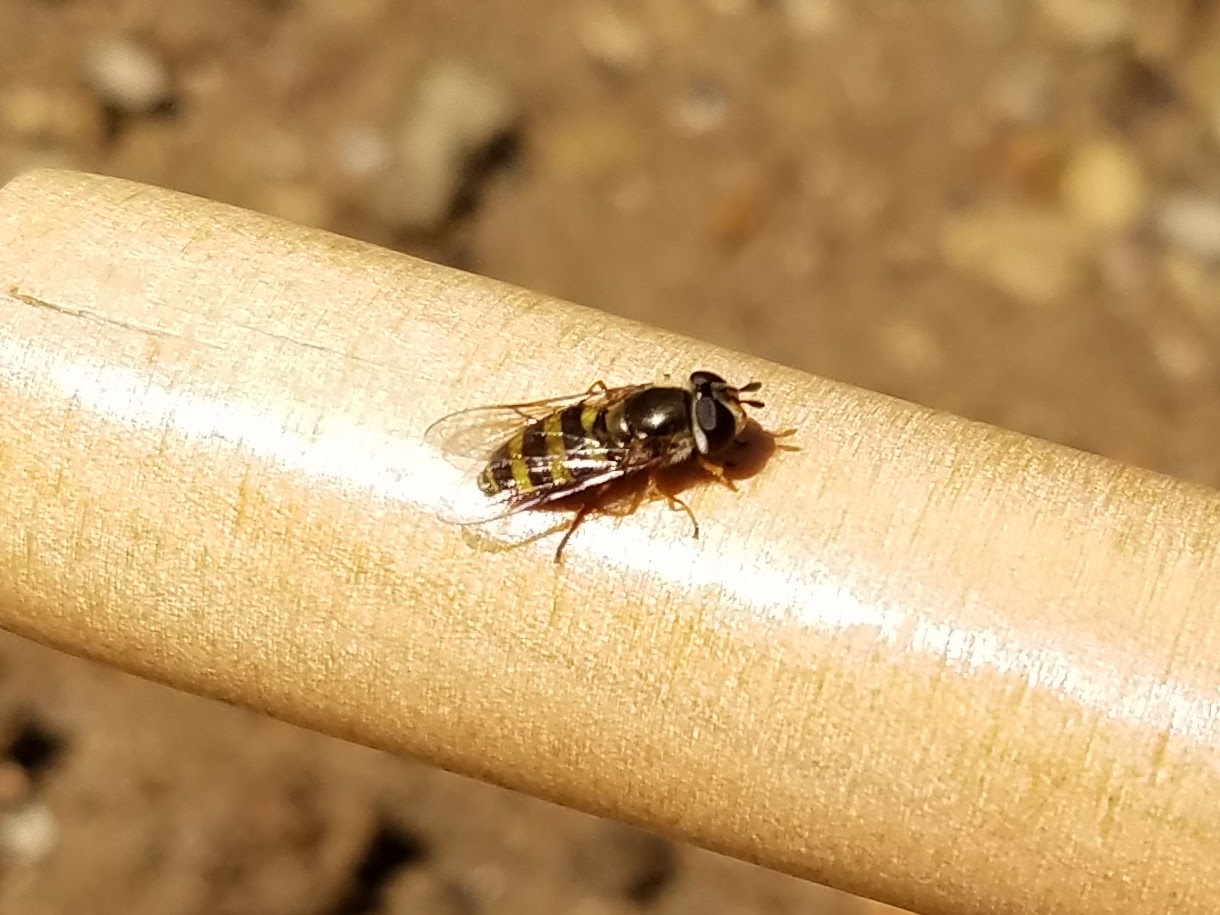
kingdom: Animalia
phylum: Arthropoda
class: Insecta
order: Diptera
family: Syrphidae
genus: Eupeodes
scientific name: Eupeodes
